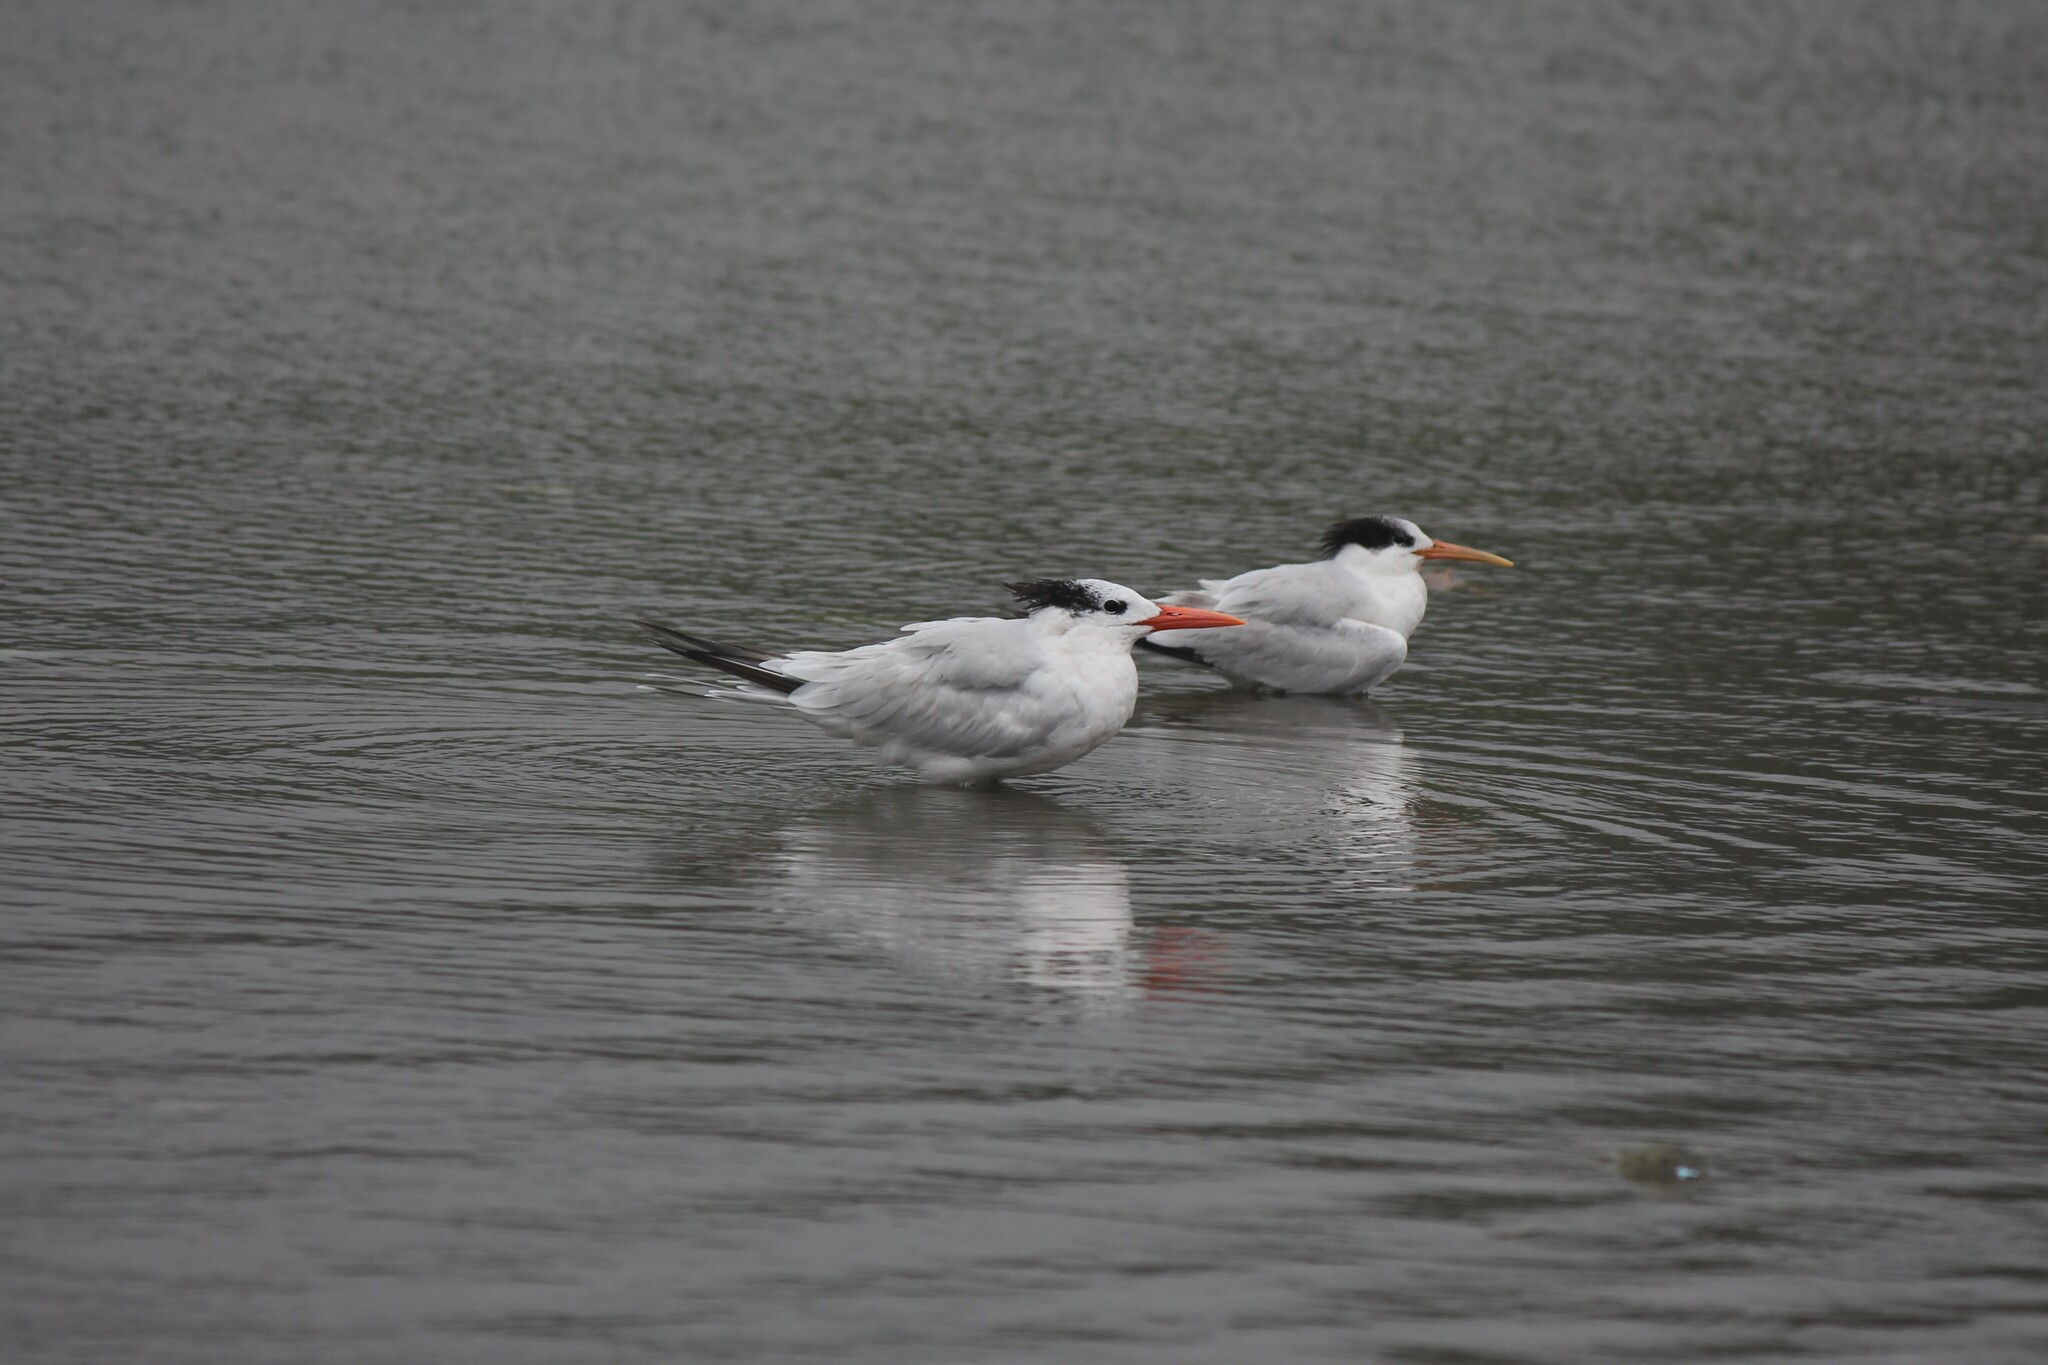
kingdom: Animalia
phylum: Chordata
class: Aves
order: Charadriiformes
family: Laridae
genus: Thalasseus
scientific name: Thalasseus maximus
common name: Royal tern
